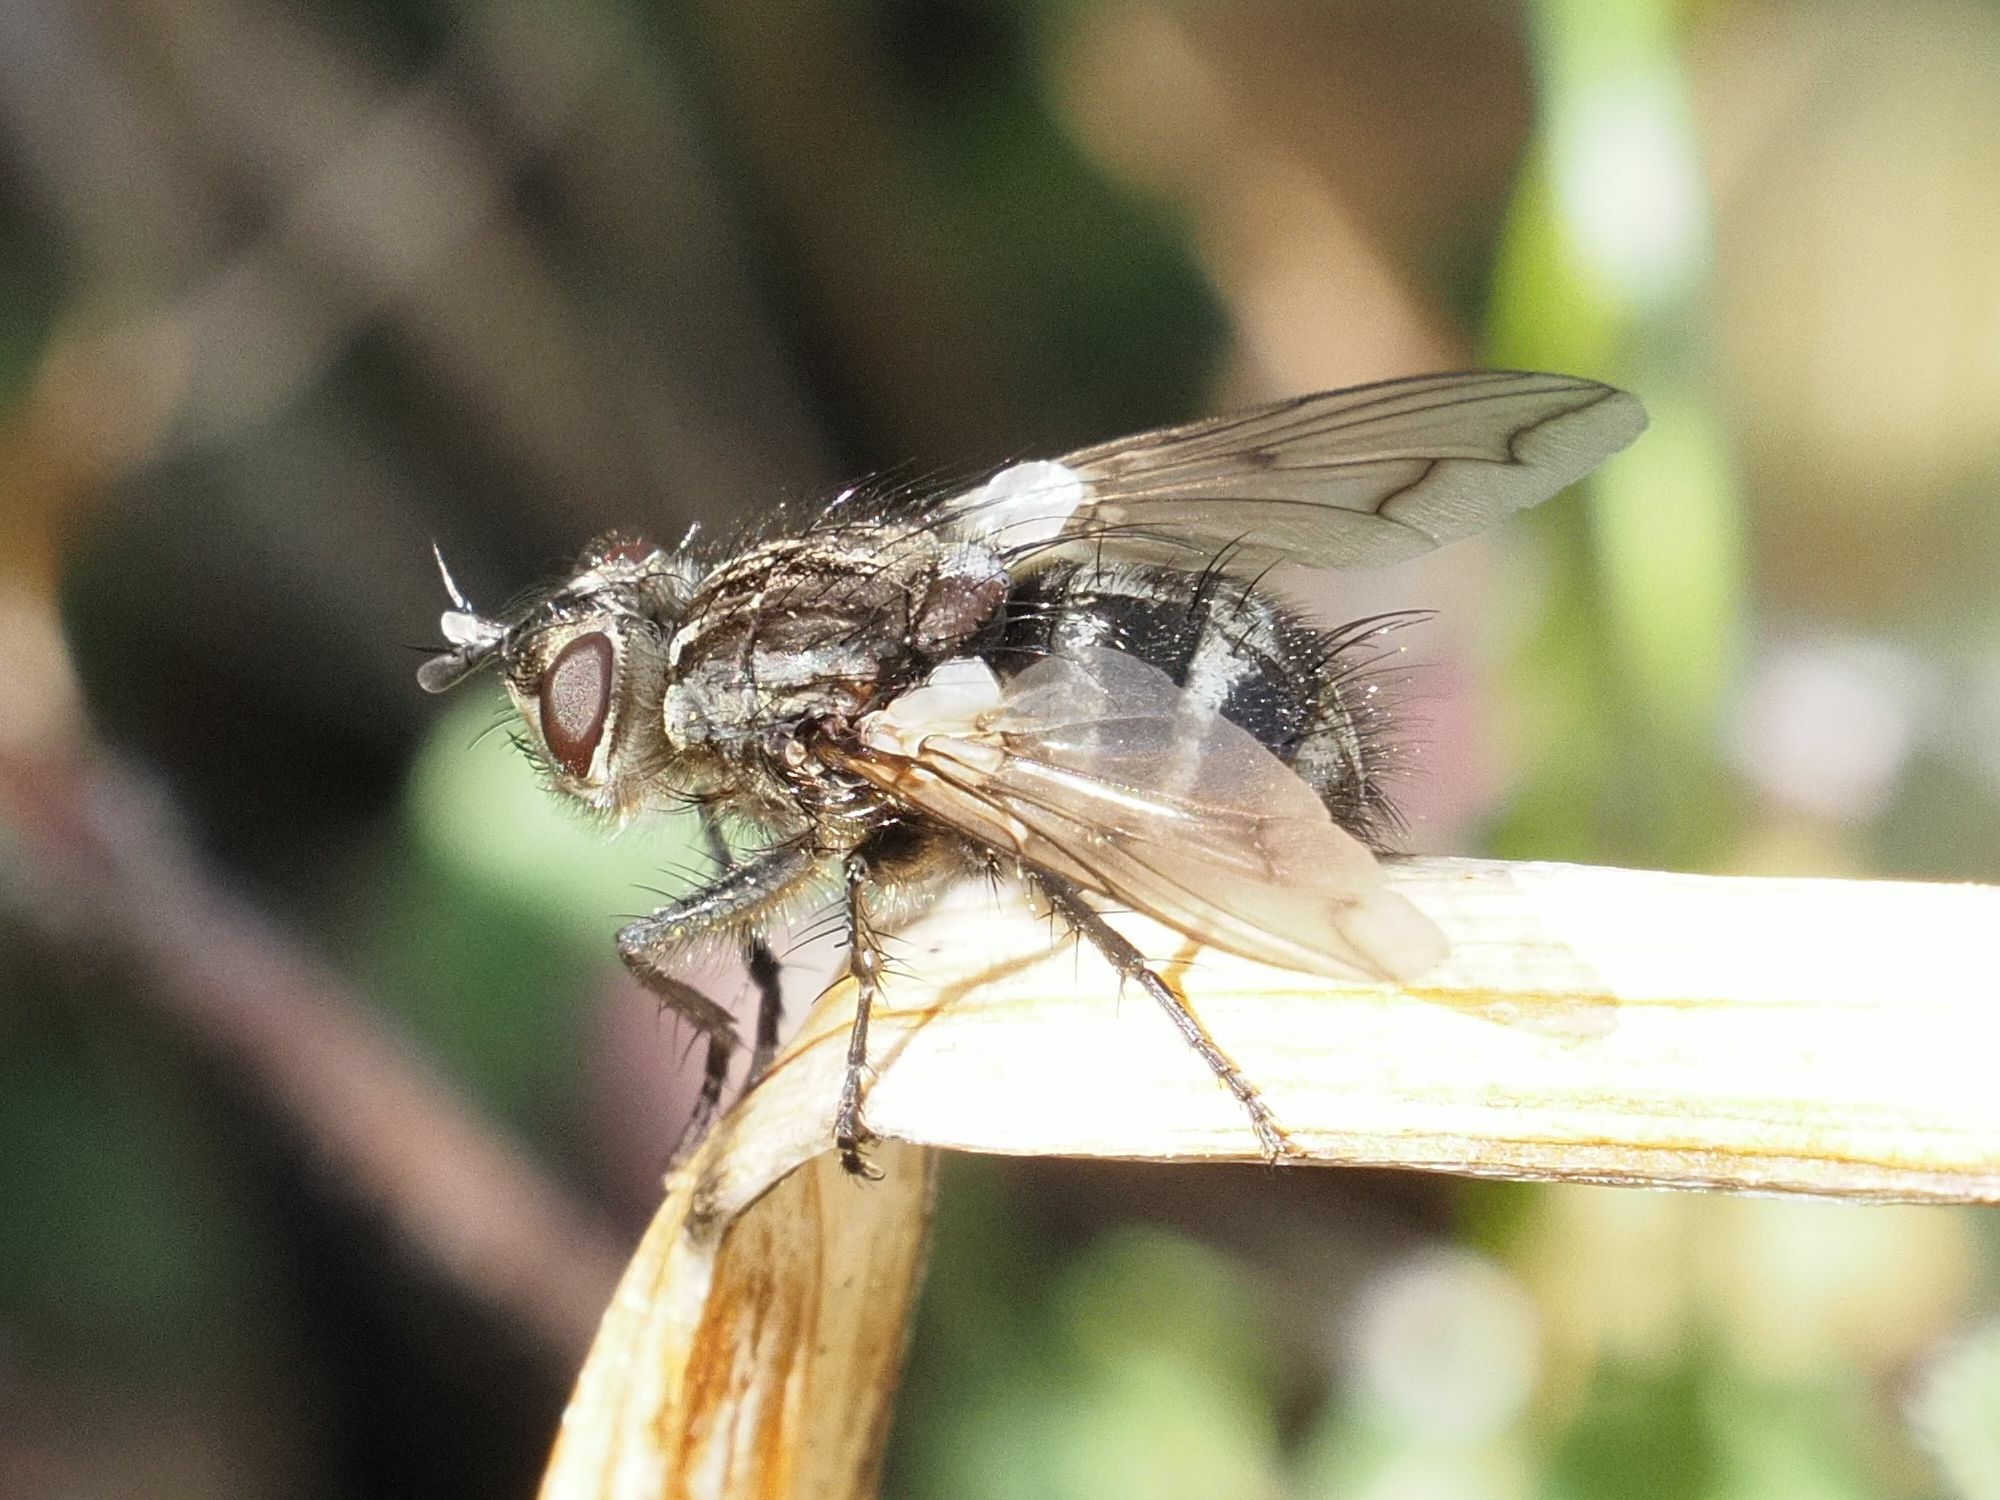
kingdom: Animalia
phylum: Arthropoda
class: Insecta
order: Diptera
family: Tachinidae
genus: Panzeria
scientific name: Panzeria puparum
